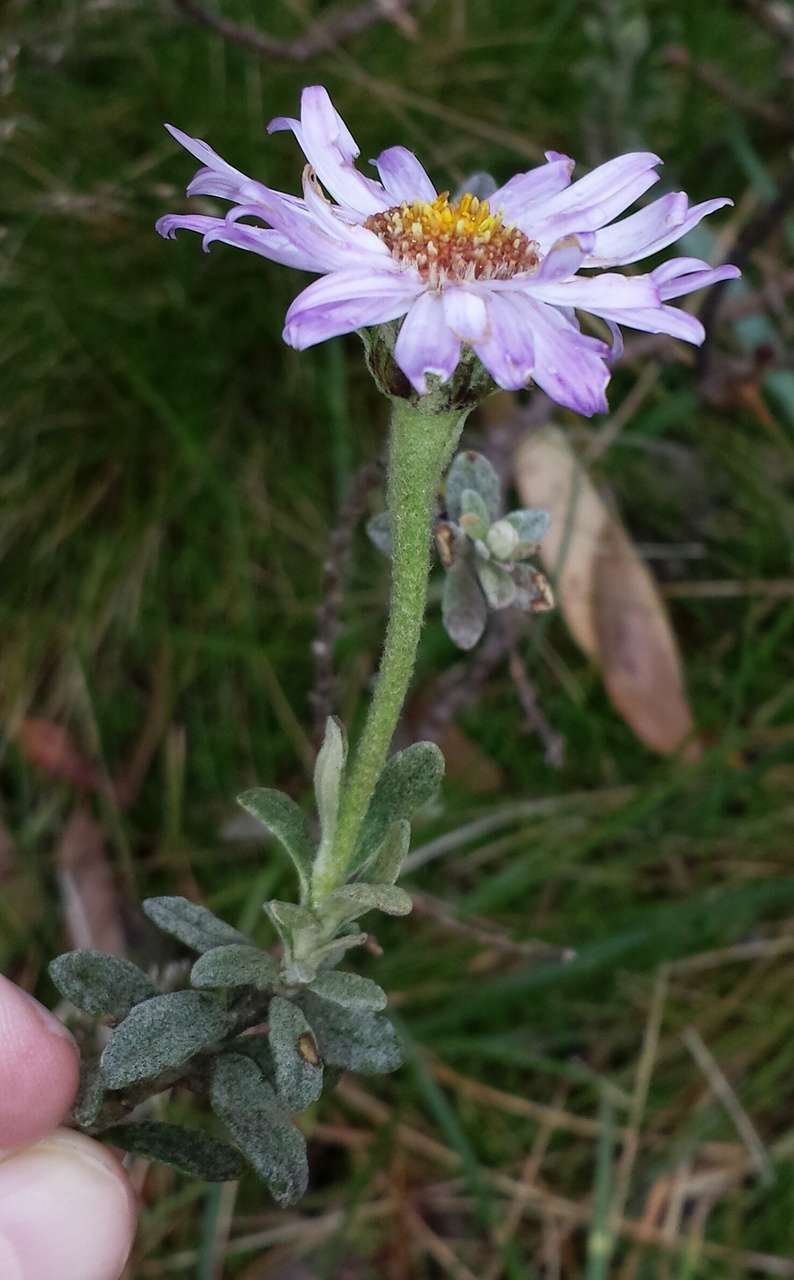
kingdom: Plantae
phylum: Tracheophyta
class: Magnoliopsida
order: Asterales
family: Asteraceae
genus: Olearia
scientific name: Olearia frostii
